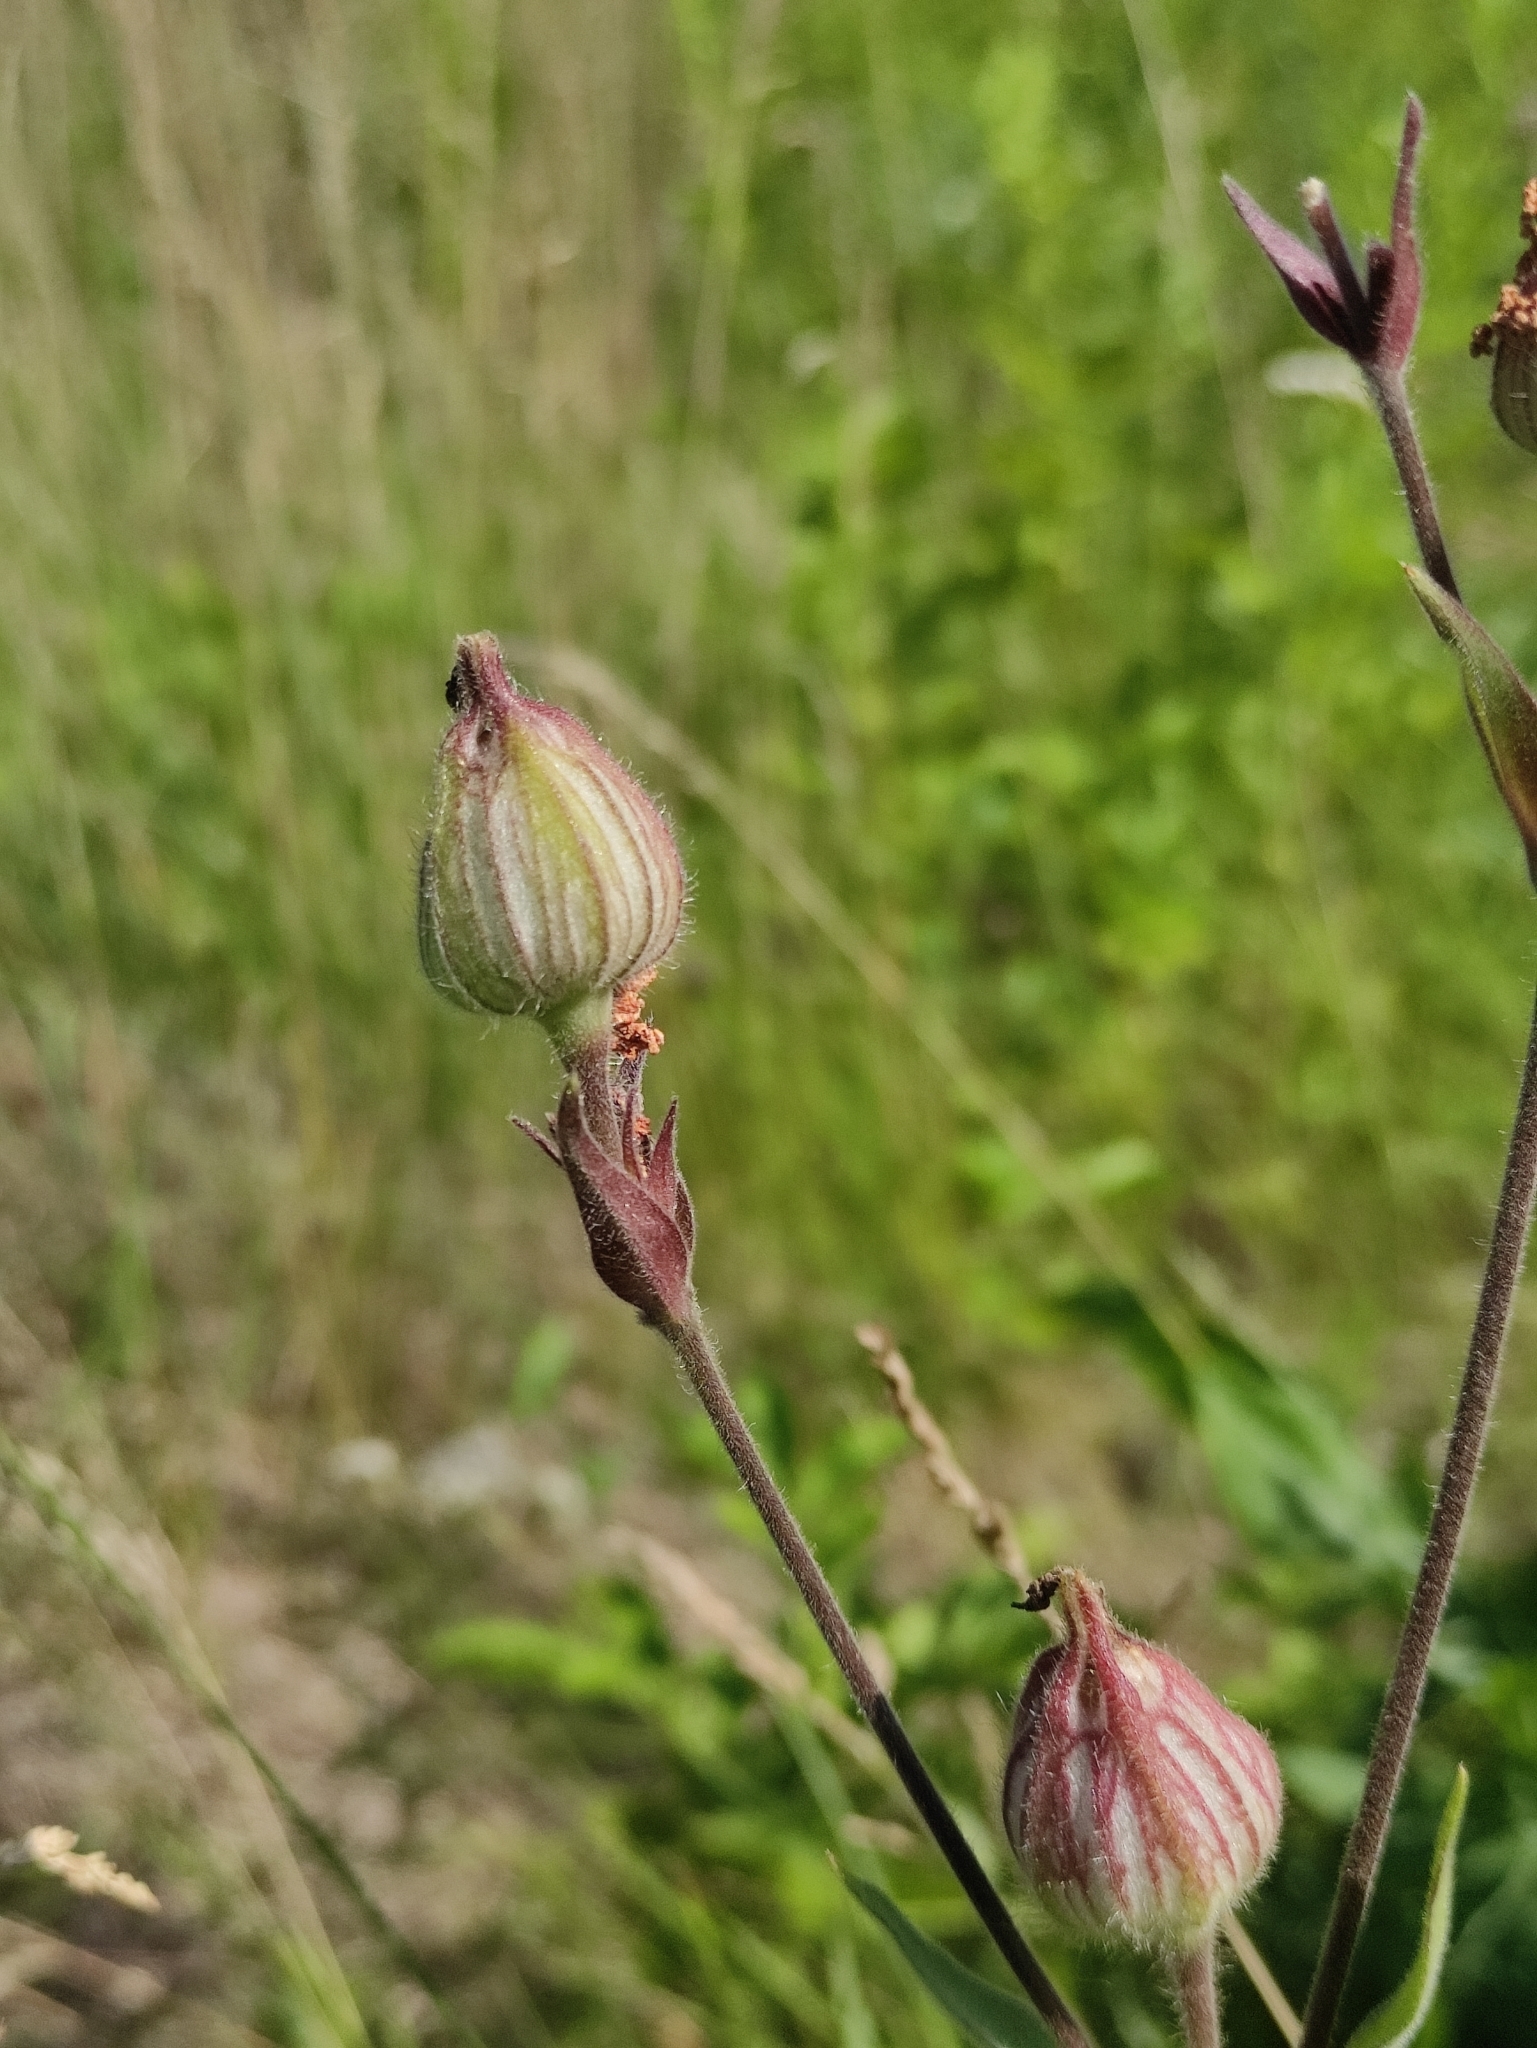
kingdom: Plantae
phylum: Tracheophyta
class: Magnoliopsida
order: Caryophyllales
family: Caryophyllaceae
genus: Silene
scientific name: Silene latifolia
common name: White campion
